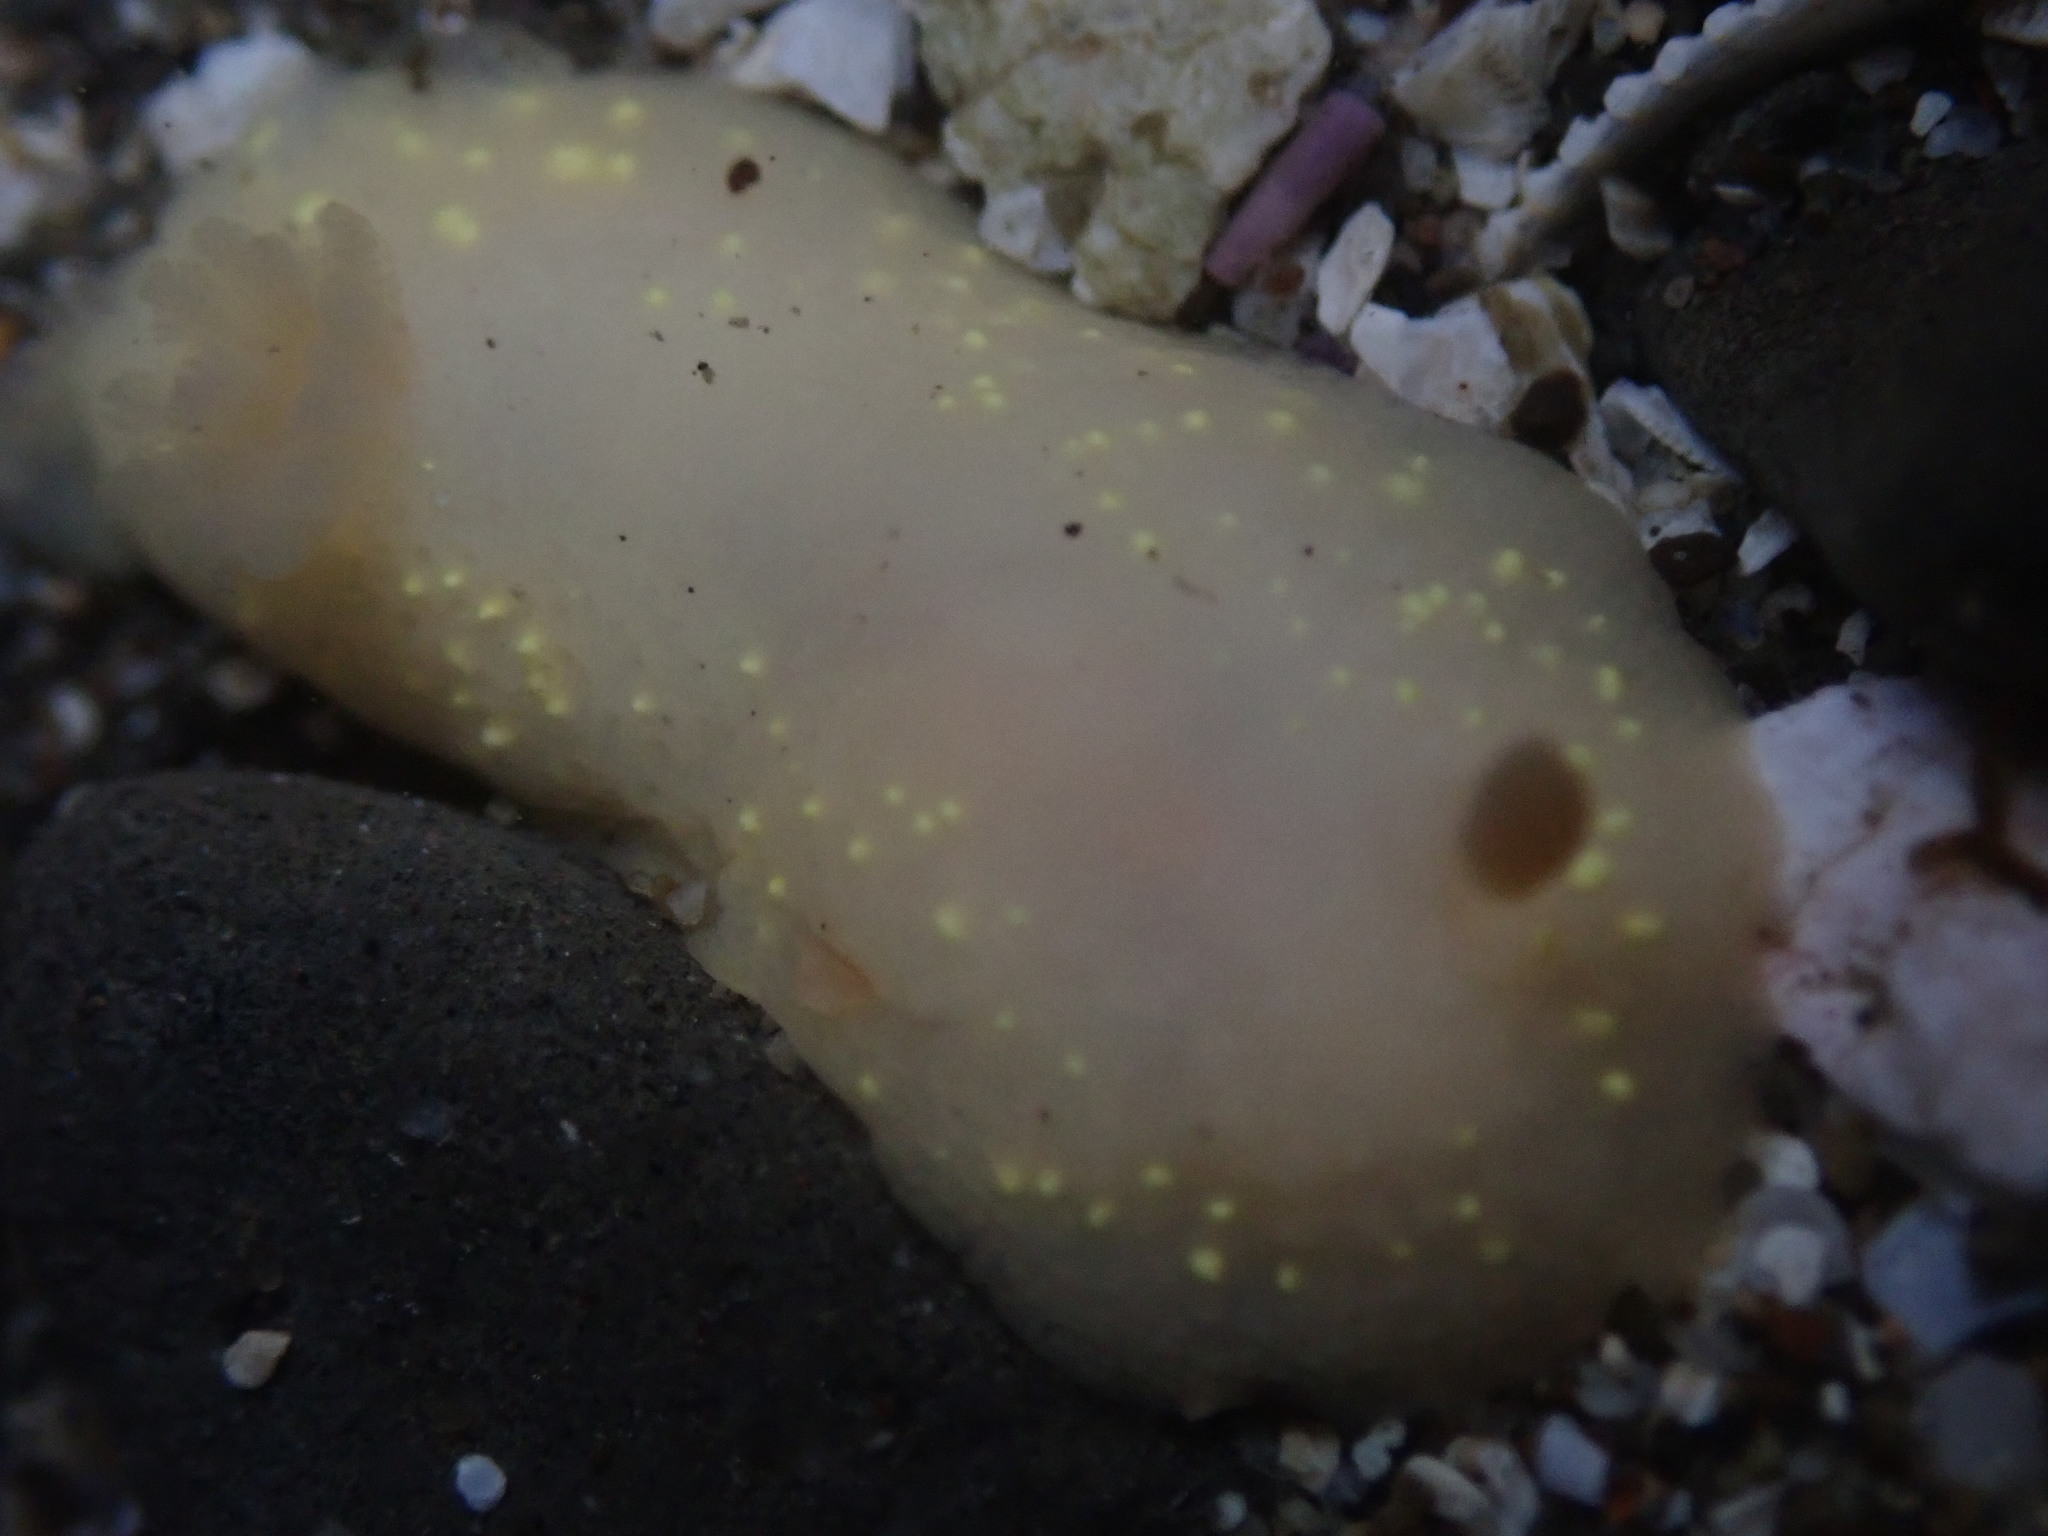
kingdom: Animalia
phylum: Mollusca
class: Gastropoda
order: Nudibranchia
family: Cadlinidae
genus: Cadlina
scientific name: Cadlina modesta
